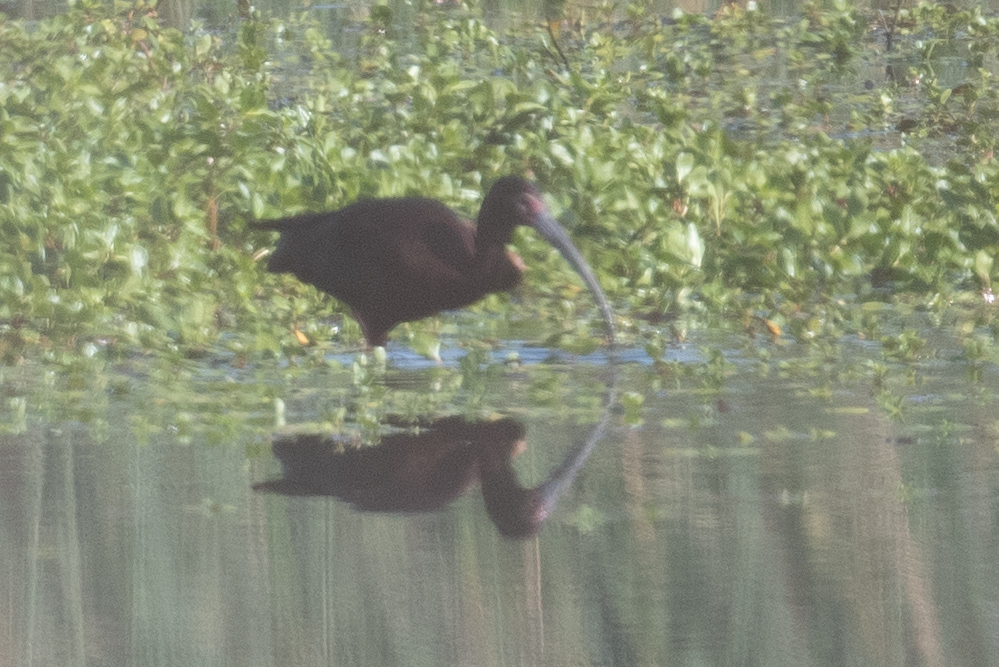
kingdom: Animalia
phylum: Chordata
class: Aves
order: Pelecaniformes
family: Threskiornithidae
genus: Plegadis
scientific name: Plegadis chihi
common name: White-faced ibis
